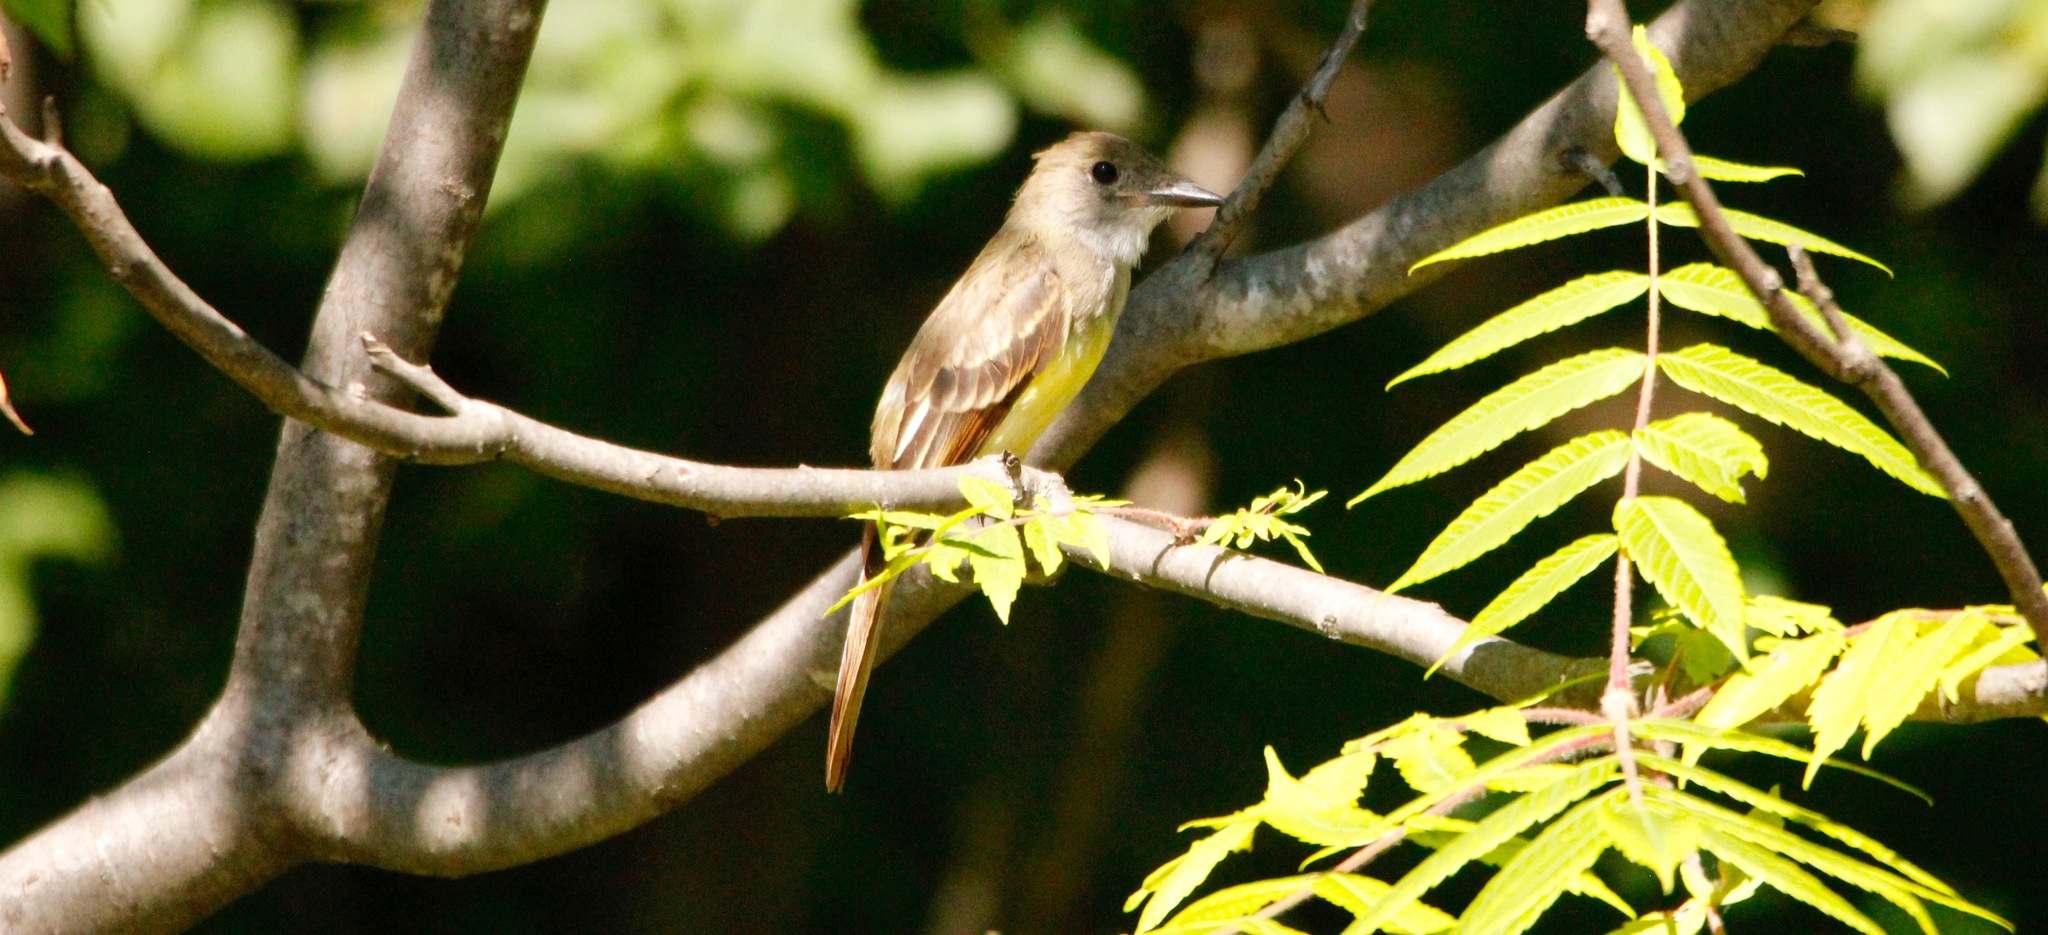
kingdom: Animalia
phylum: Chordata
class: Aves
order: Passeriformes
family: Tyrannidae
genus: Myiarchus
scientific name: Myiarchus crinitus
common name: Great crested flycatcher
